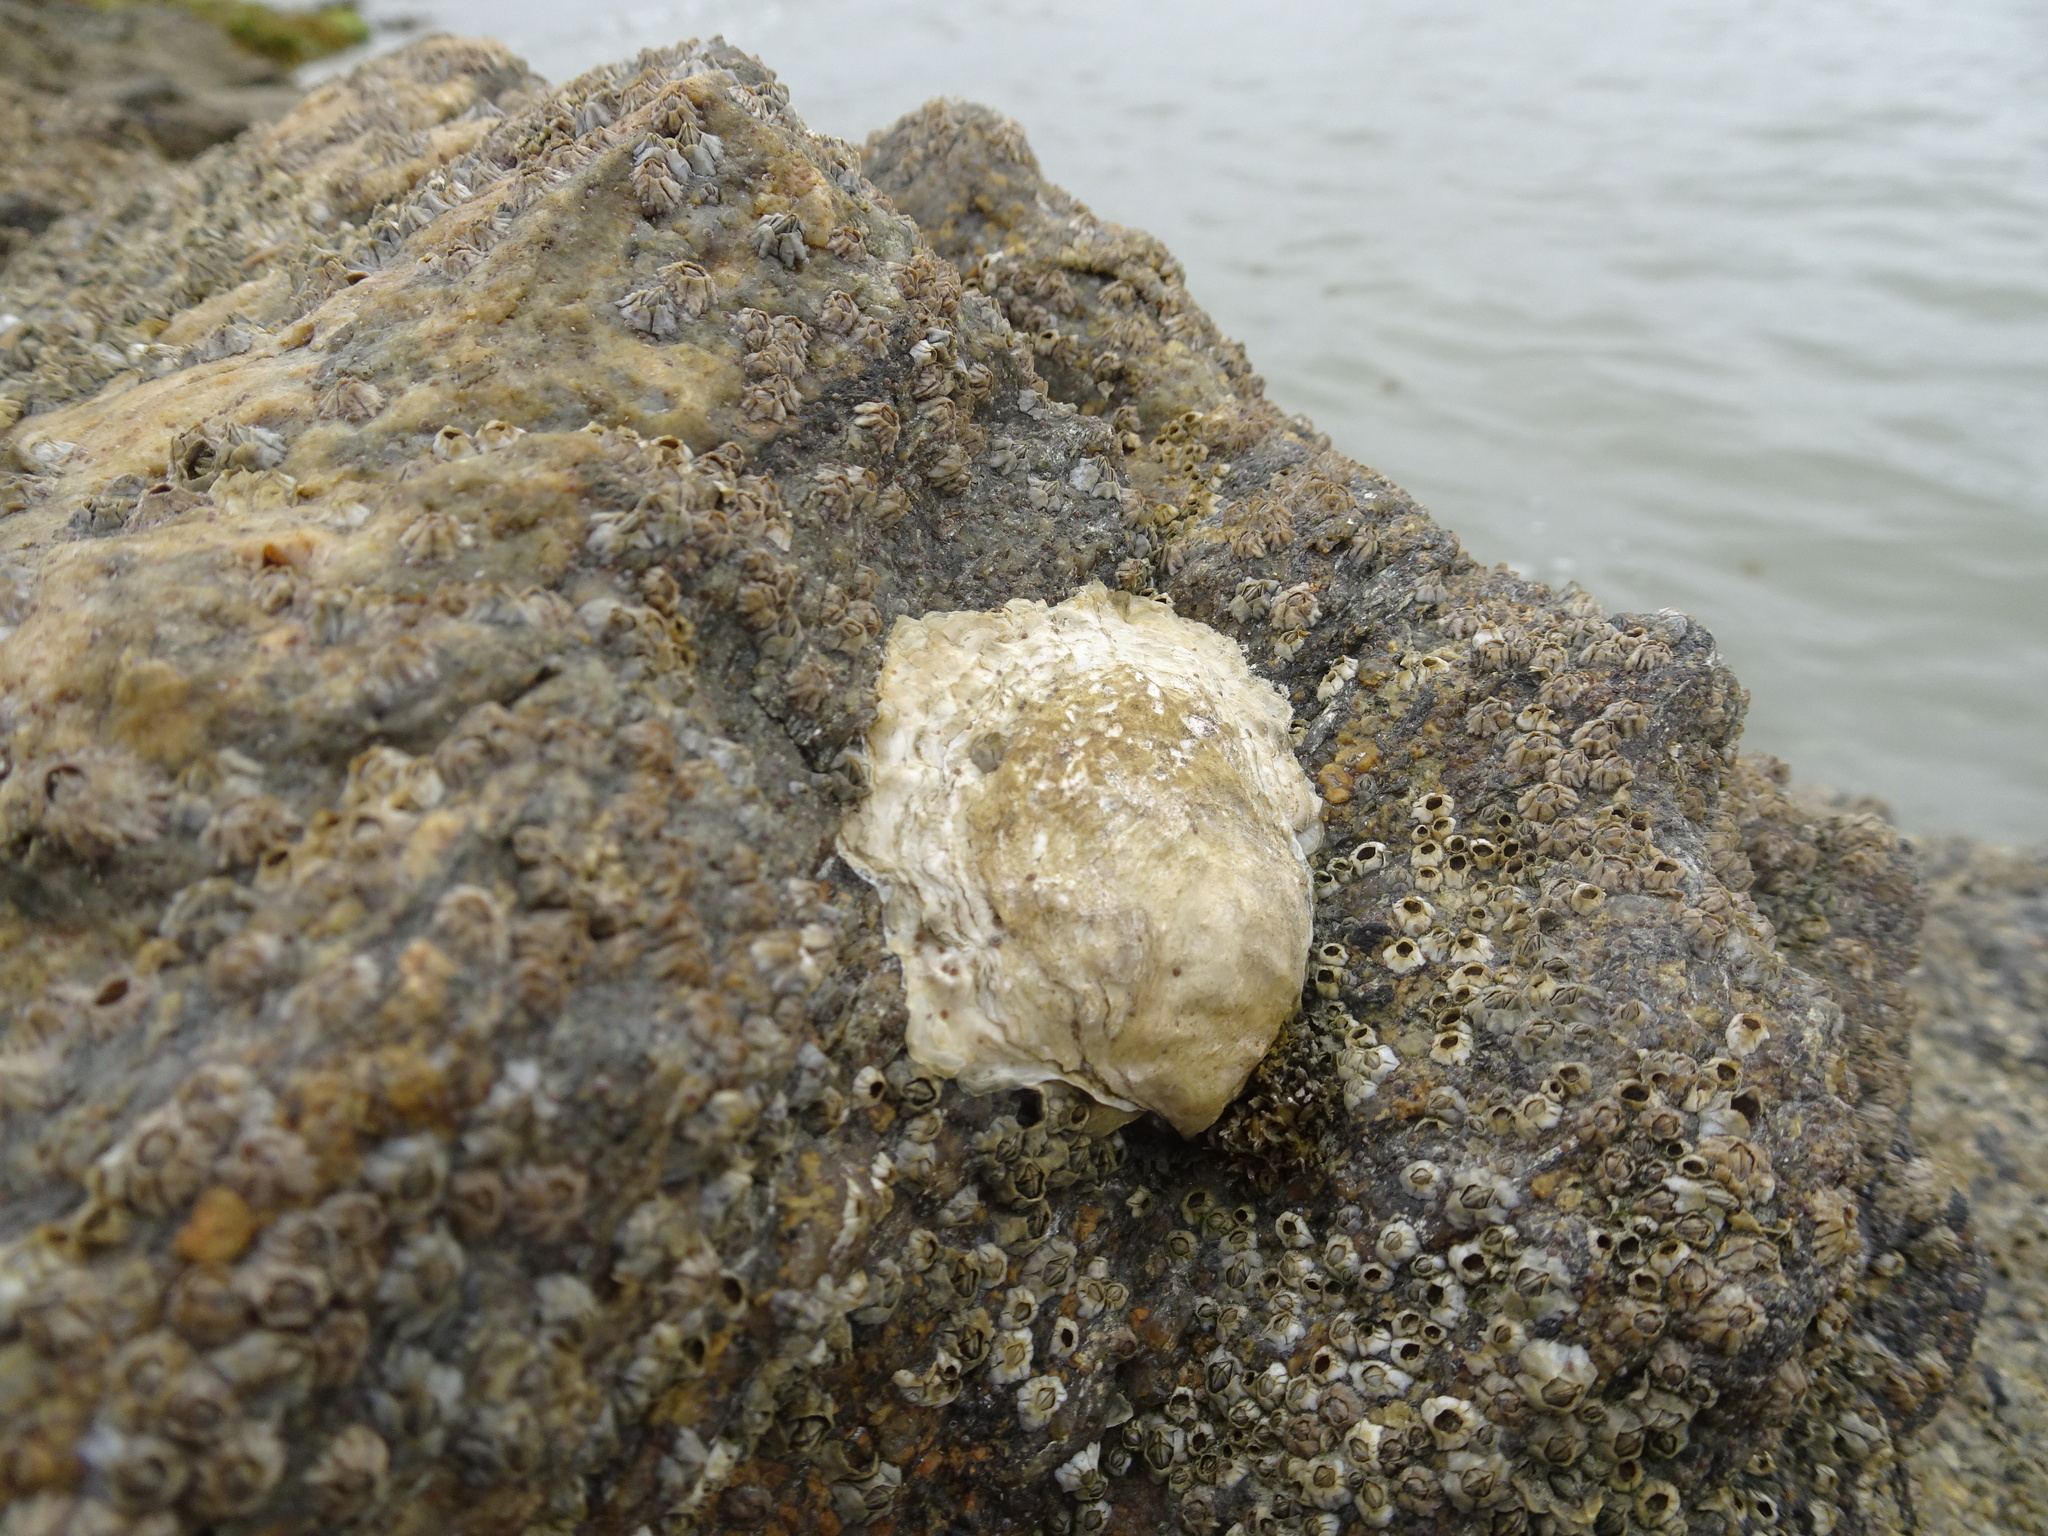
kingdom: Animalia
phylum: Mollusca
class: Bivalvia
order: Ostreida
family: Ostreidae
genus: Magallana
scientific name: Magallana gigas
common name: Pacific oyster
